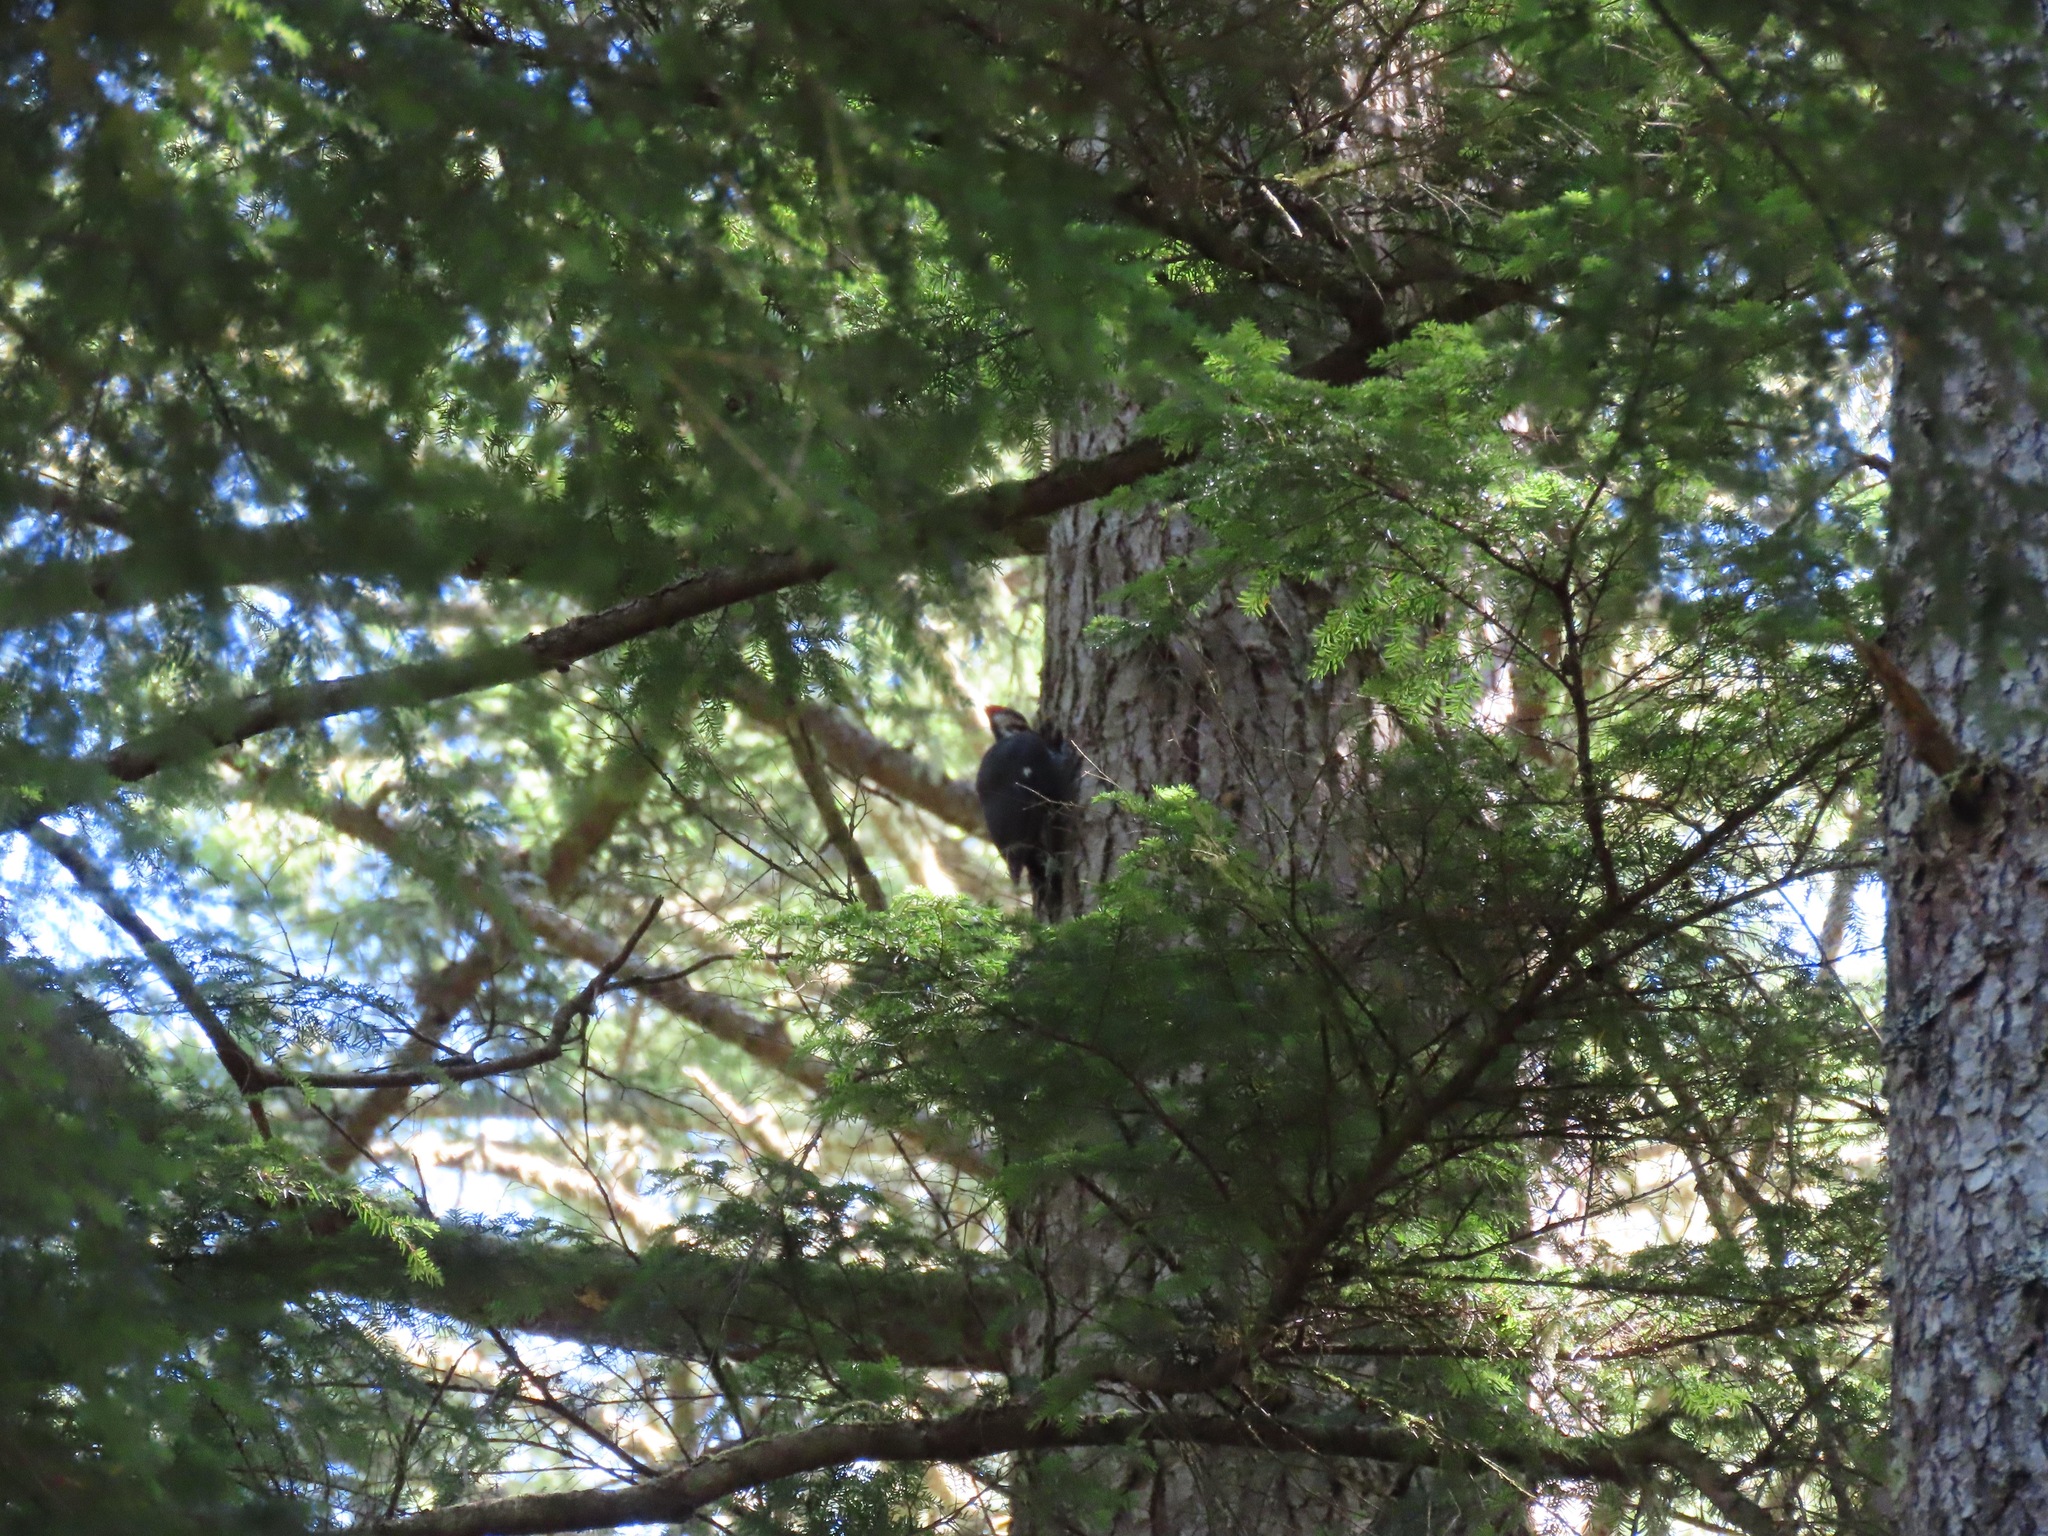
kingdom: Animalia
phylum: Chordata
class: Aves
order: Piciformes
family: Picidae
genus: Dryocopus
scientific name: Dryocopus pileatus
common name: Pileated woodpecker
